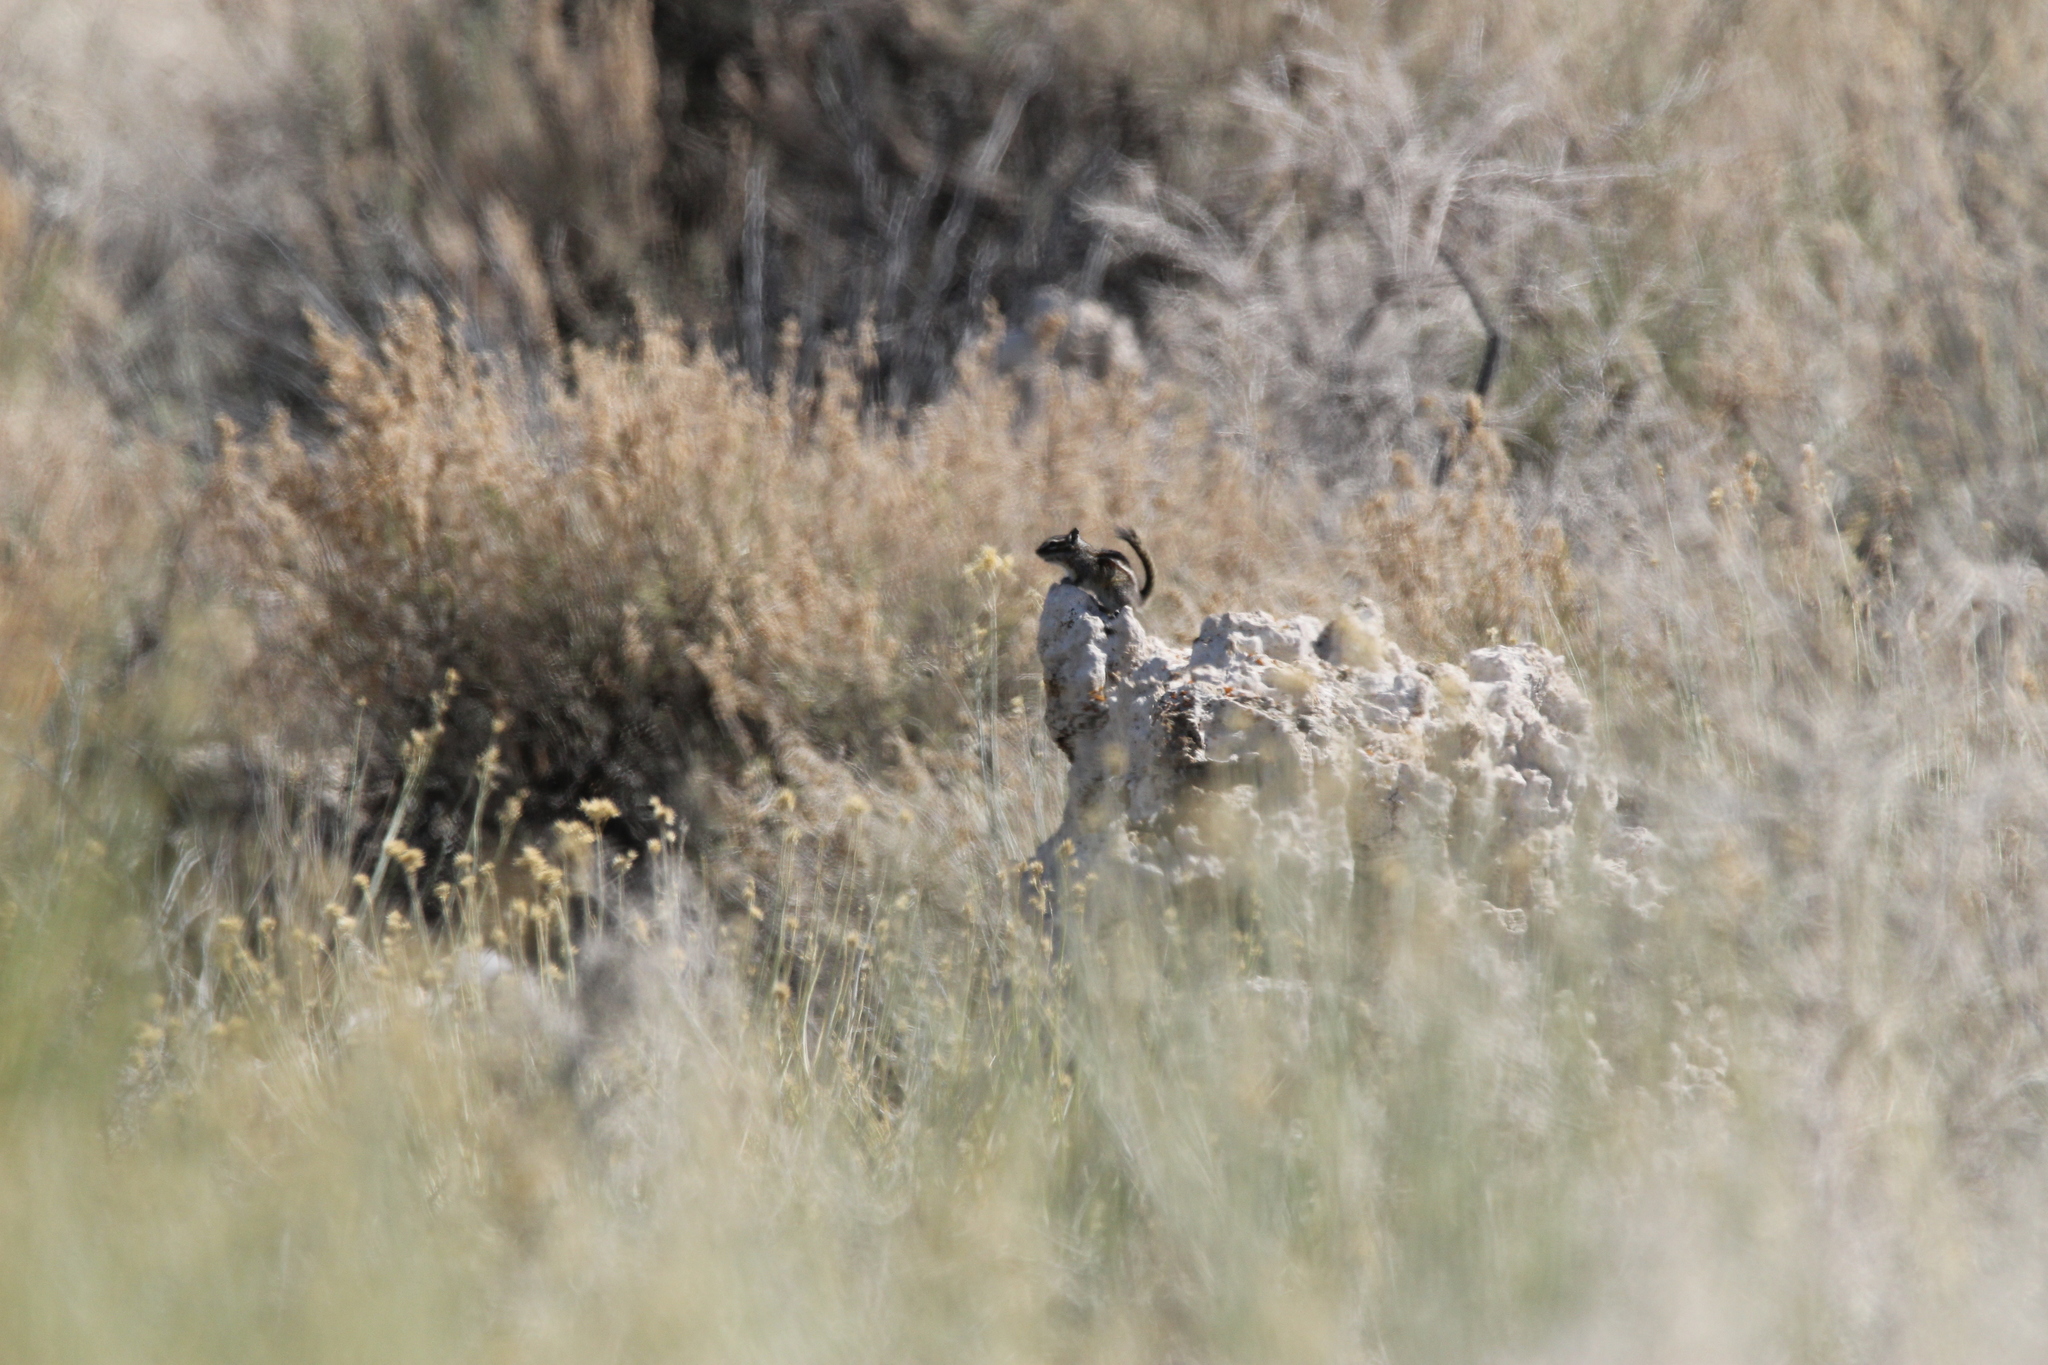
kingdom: Animalia
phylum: Chordata
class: Mammalia
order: Rodentia
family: Sciuridae
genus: Tamias
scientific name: Tamias minimus
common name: Least chipmunk
